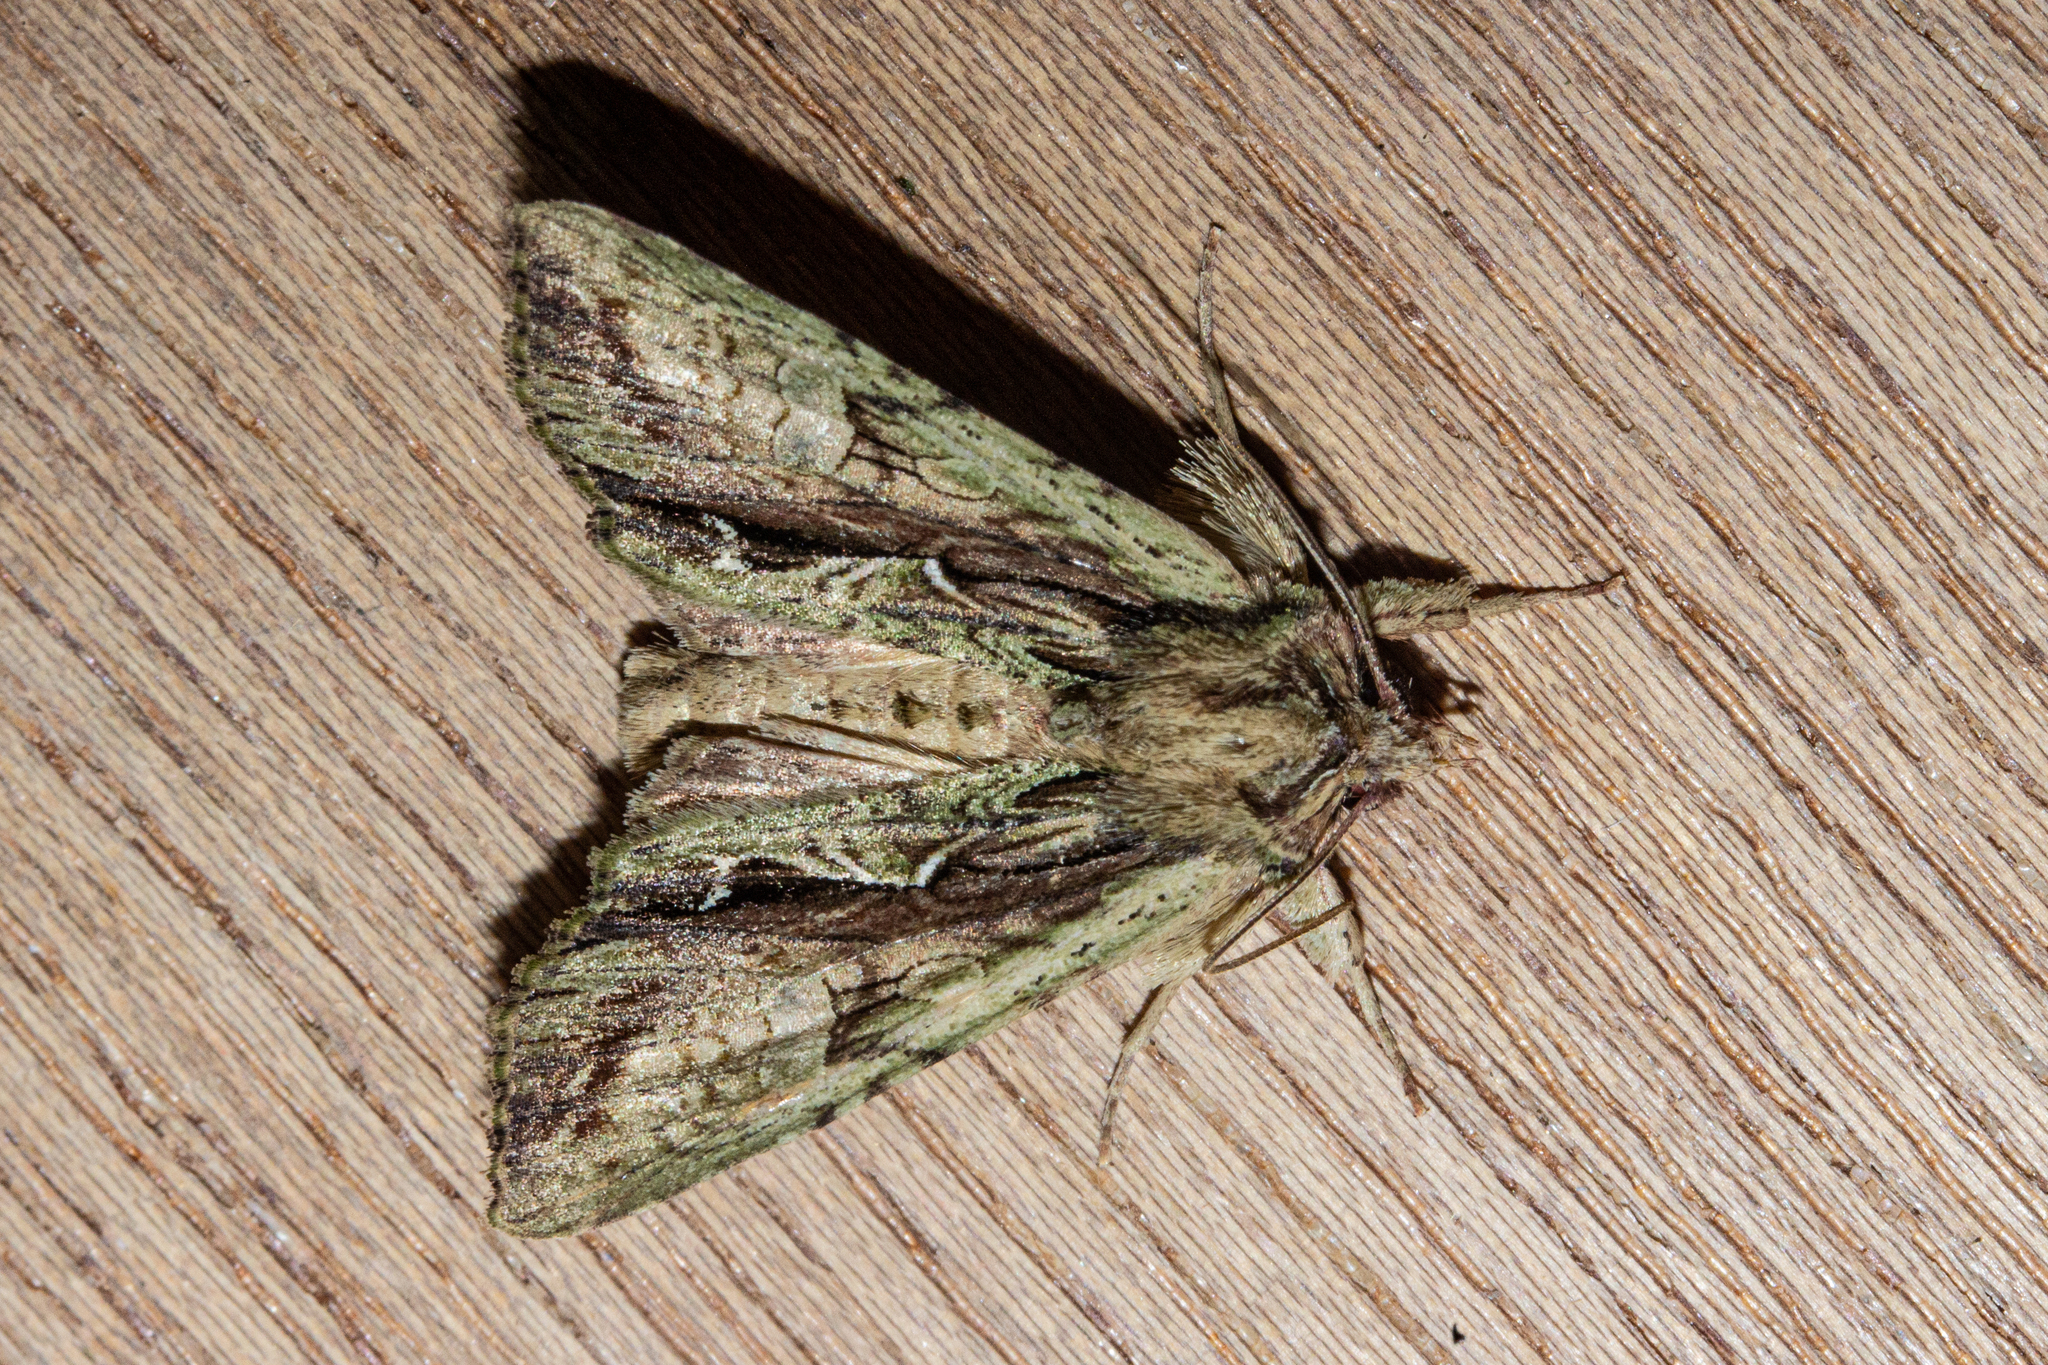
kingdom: Animalia
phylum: Arthropoda
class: Insecta
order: Lepidoptera
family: Noctuidae
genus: Meterana
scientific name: Meterana decorata
